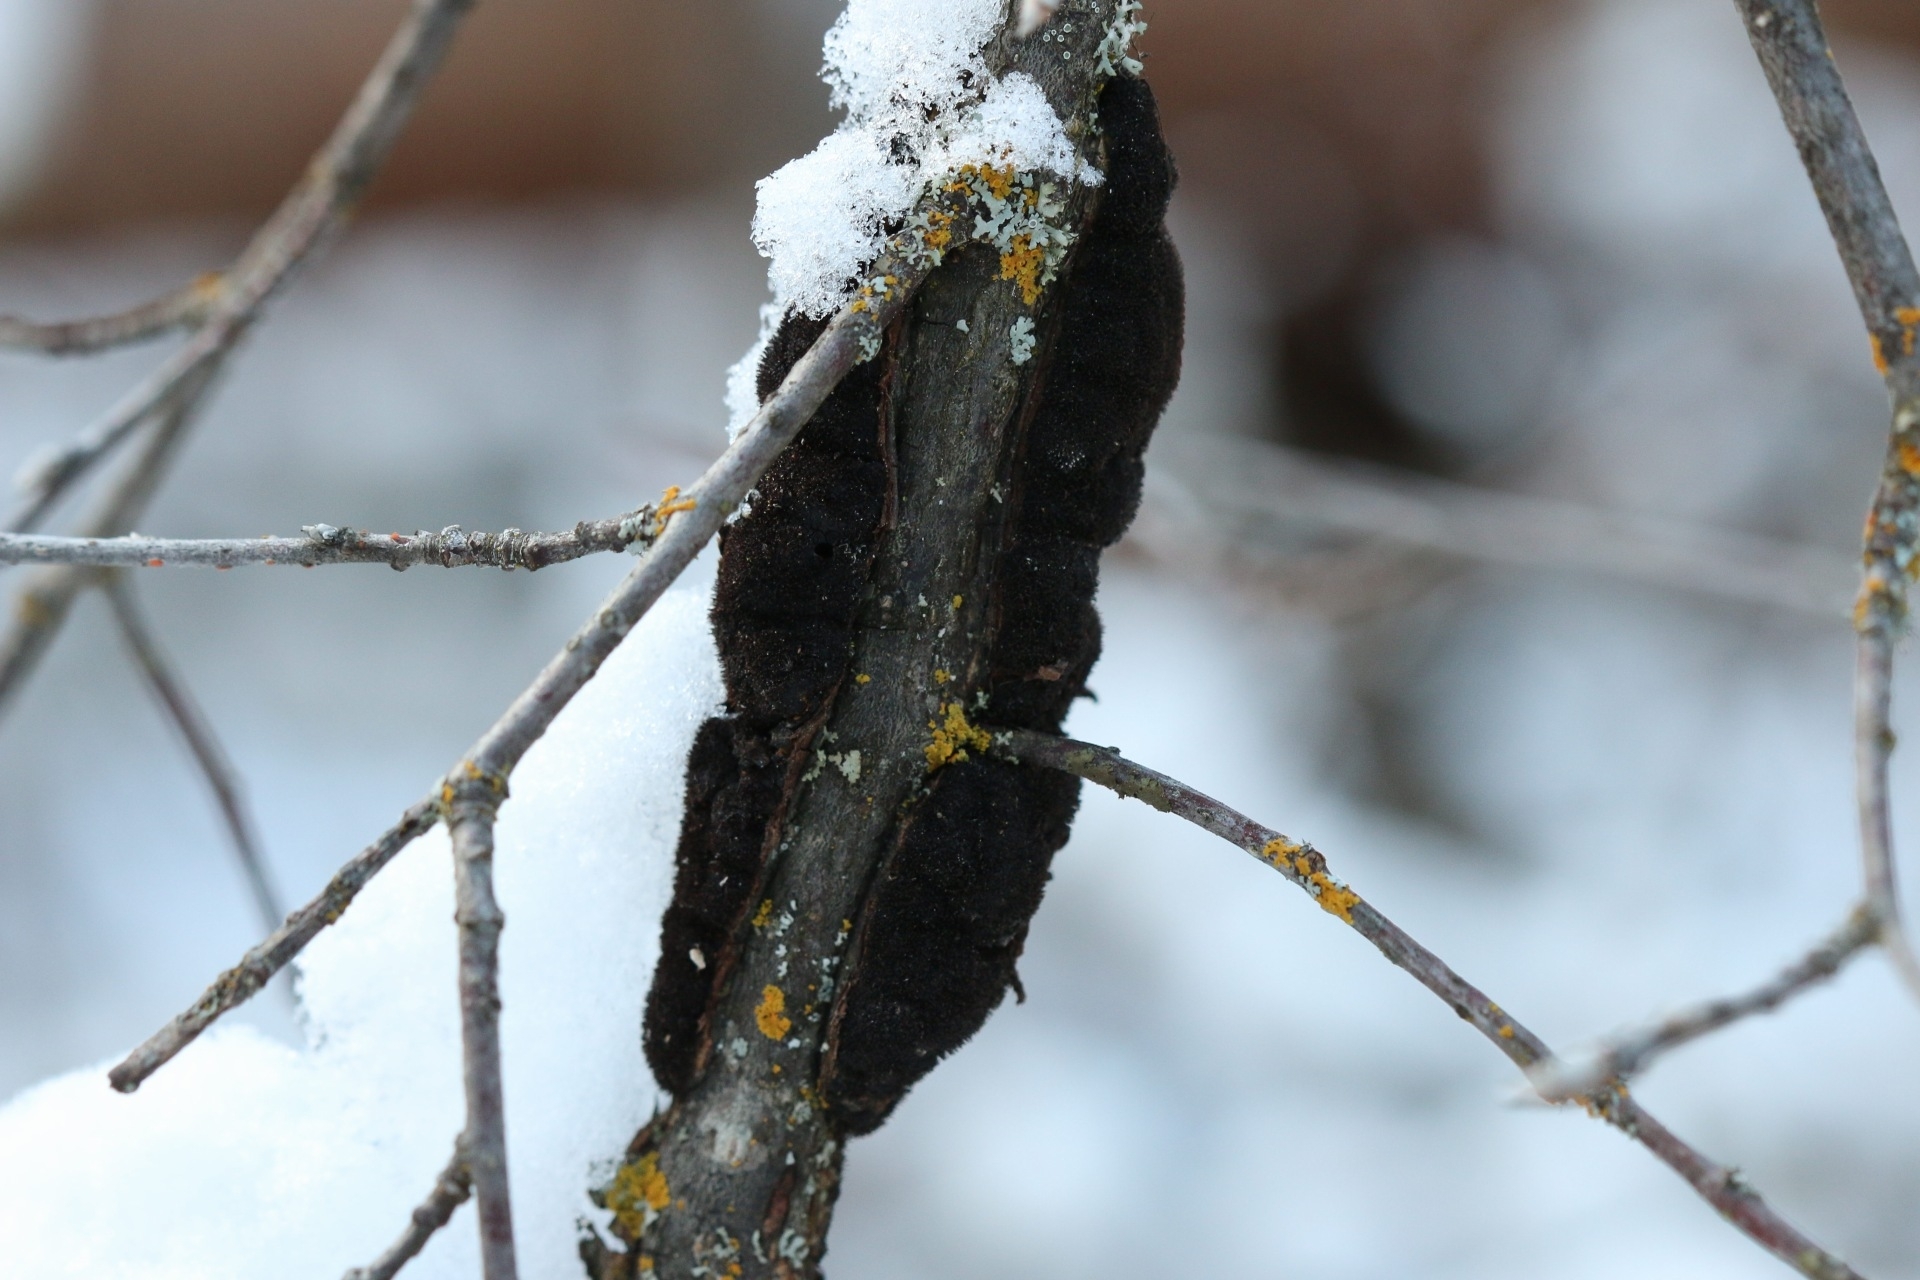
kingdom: Fungi
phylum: Ascomycota
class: Dothideomycetes
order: Venturiales
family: Venturiaceae
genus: Apiosporina
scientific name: Apiosporina morbosa
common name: Black knot
